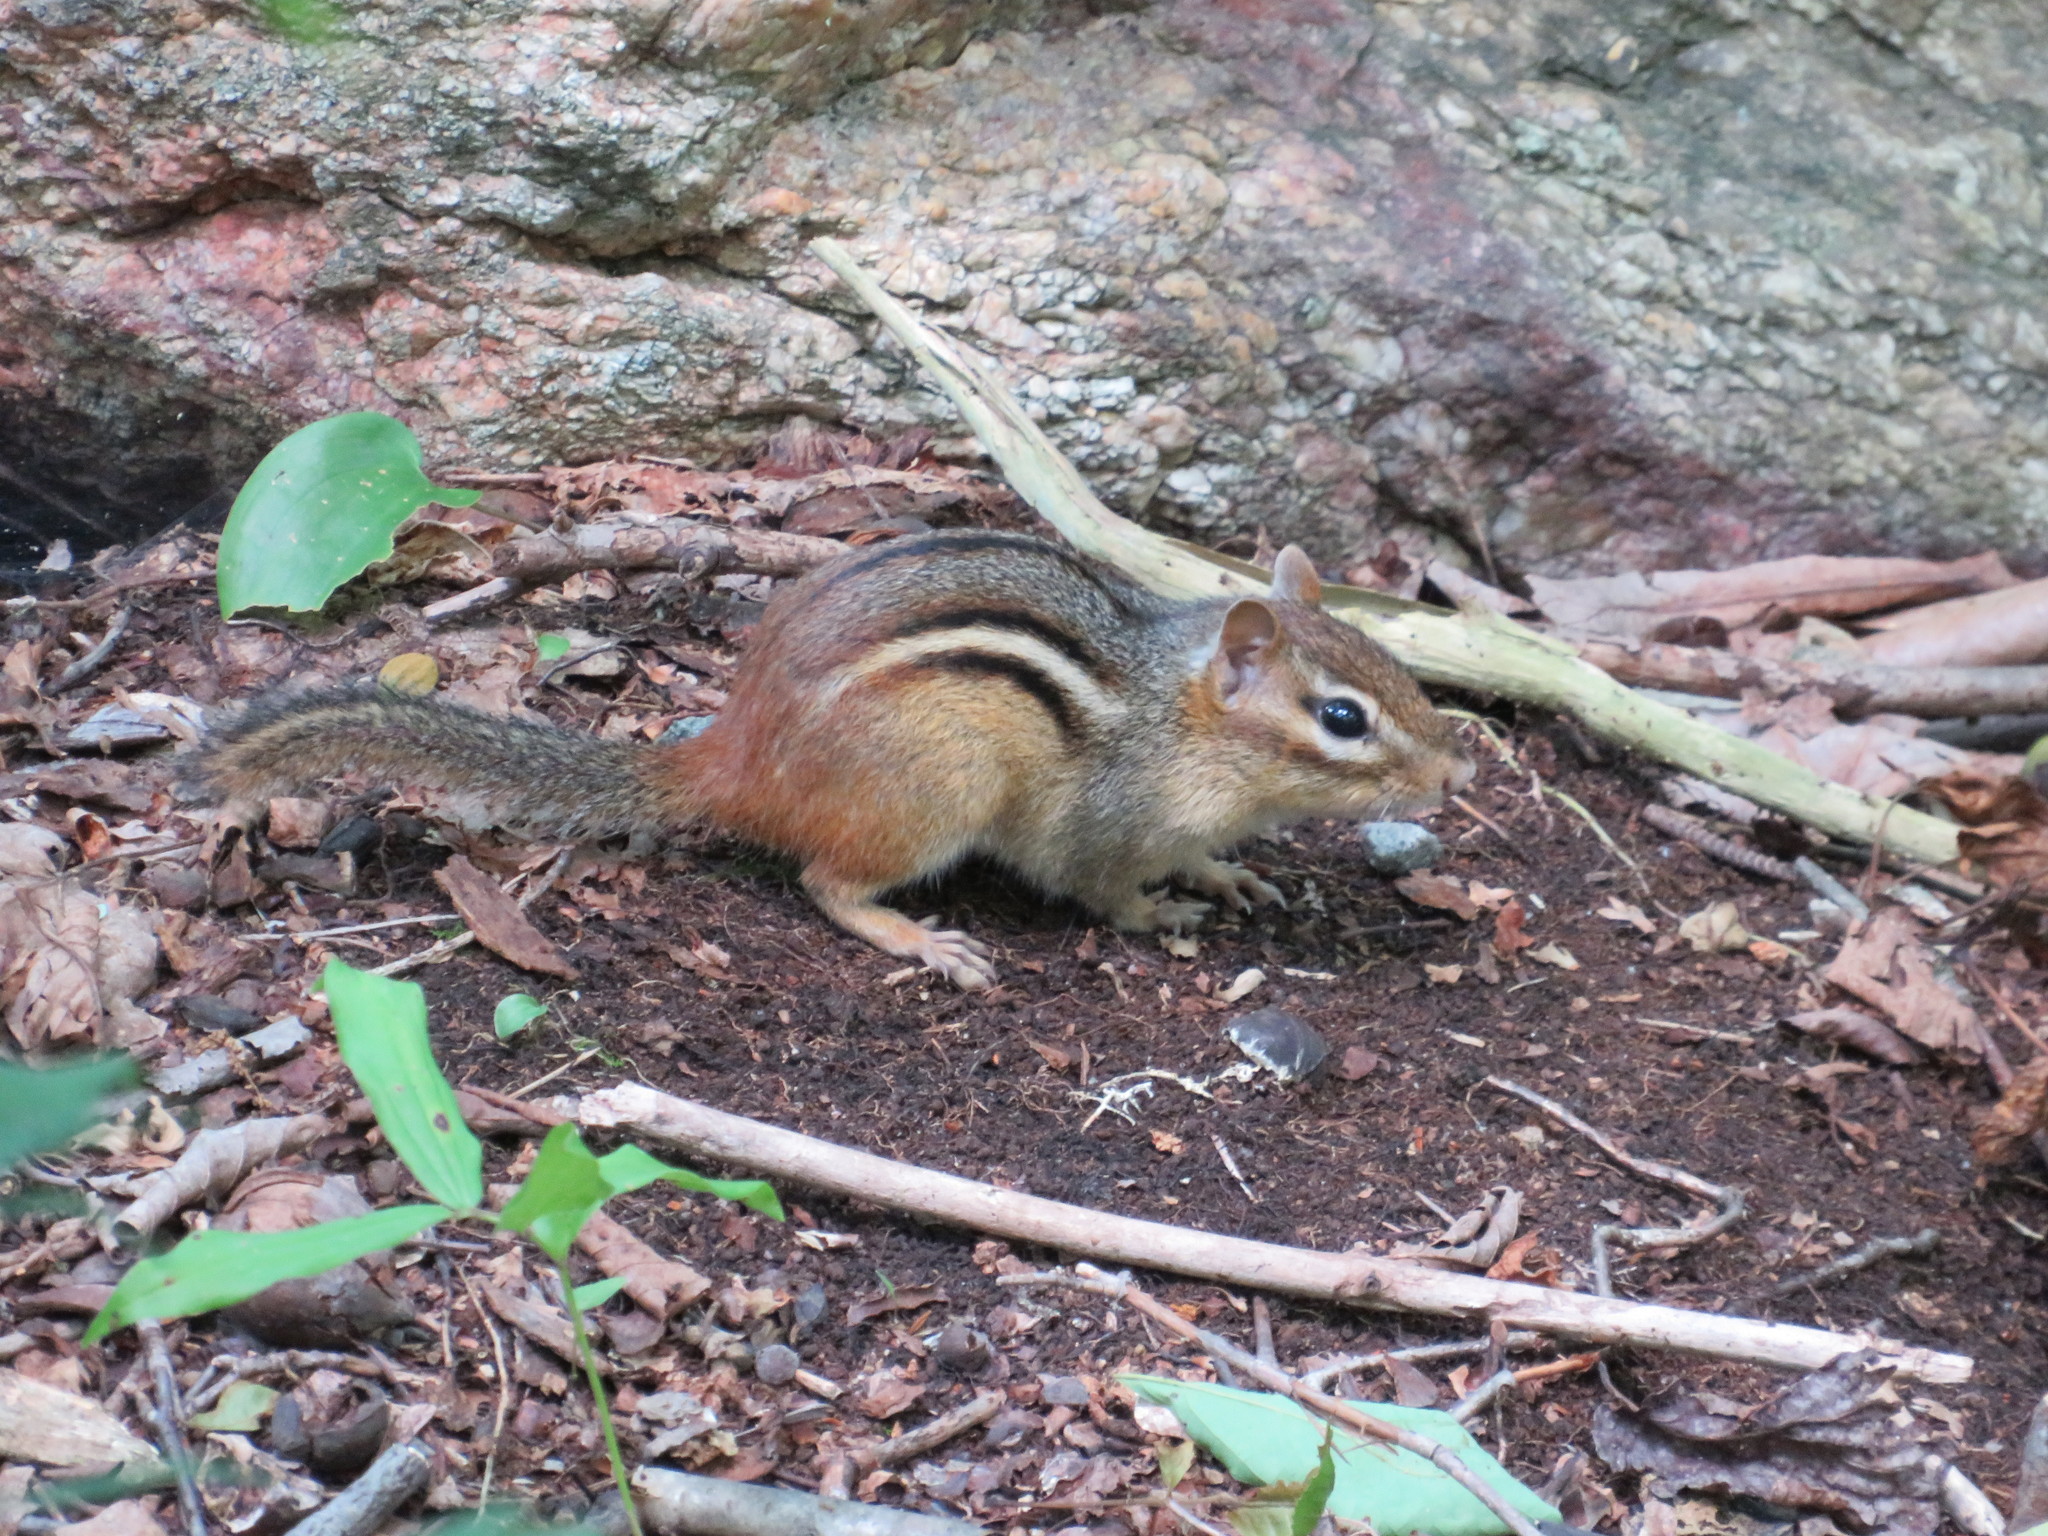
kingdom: Animalia
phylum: Chordata
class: Mammalia
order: Rodentia
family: Sciuridae
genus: Tamias
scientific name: Tamias striatus
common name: Eastern chipmunk
